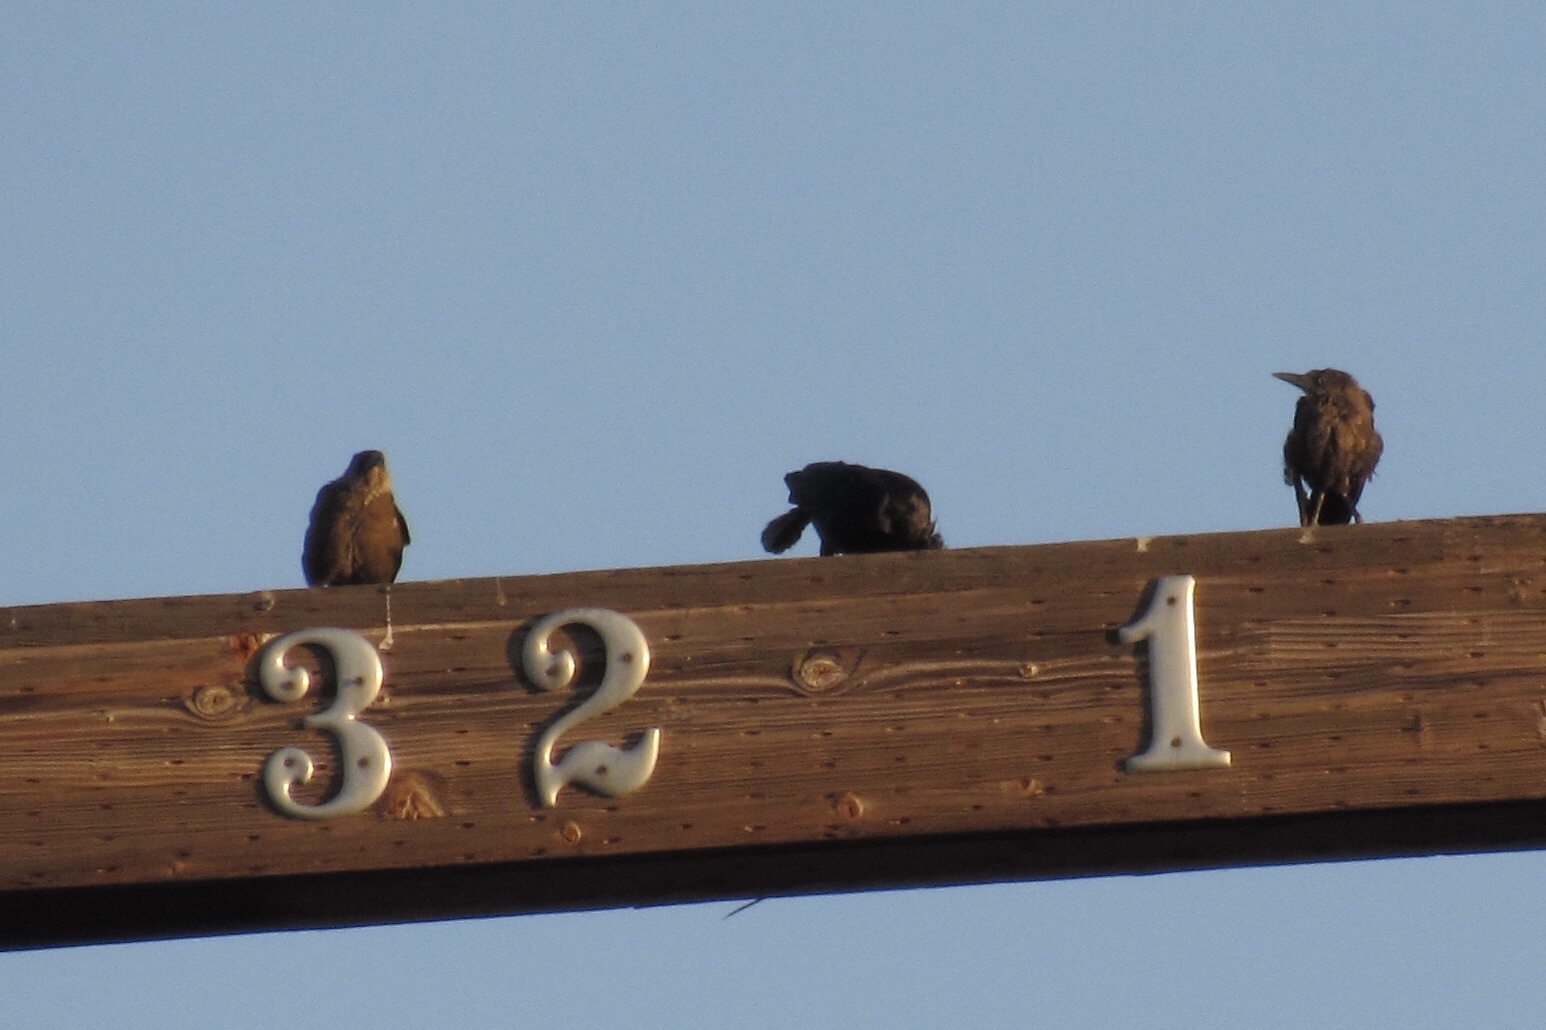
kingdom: Animalia
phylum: Chordata
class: Aves
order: Passeriformes
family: Icteridae
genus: Quiscalus
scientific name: Quiscalus mexicanus
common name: Great-tailed grackle
